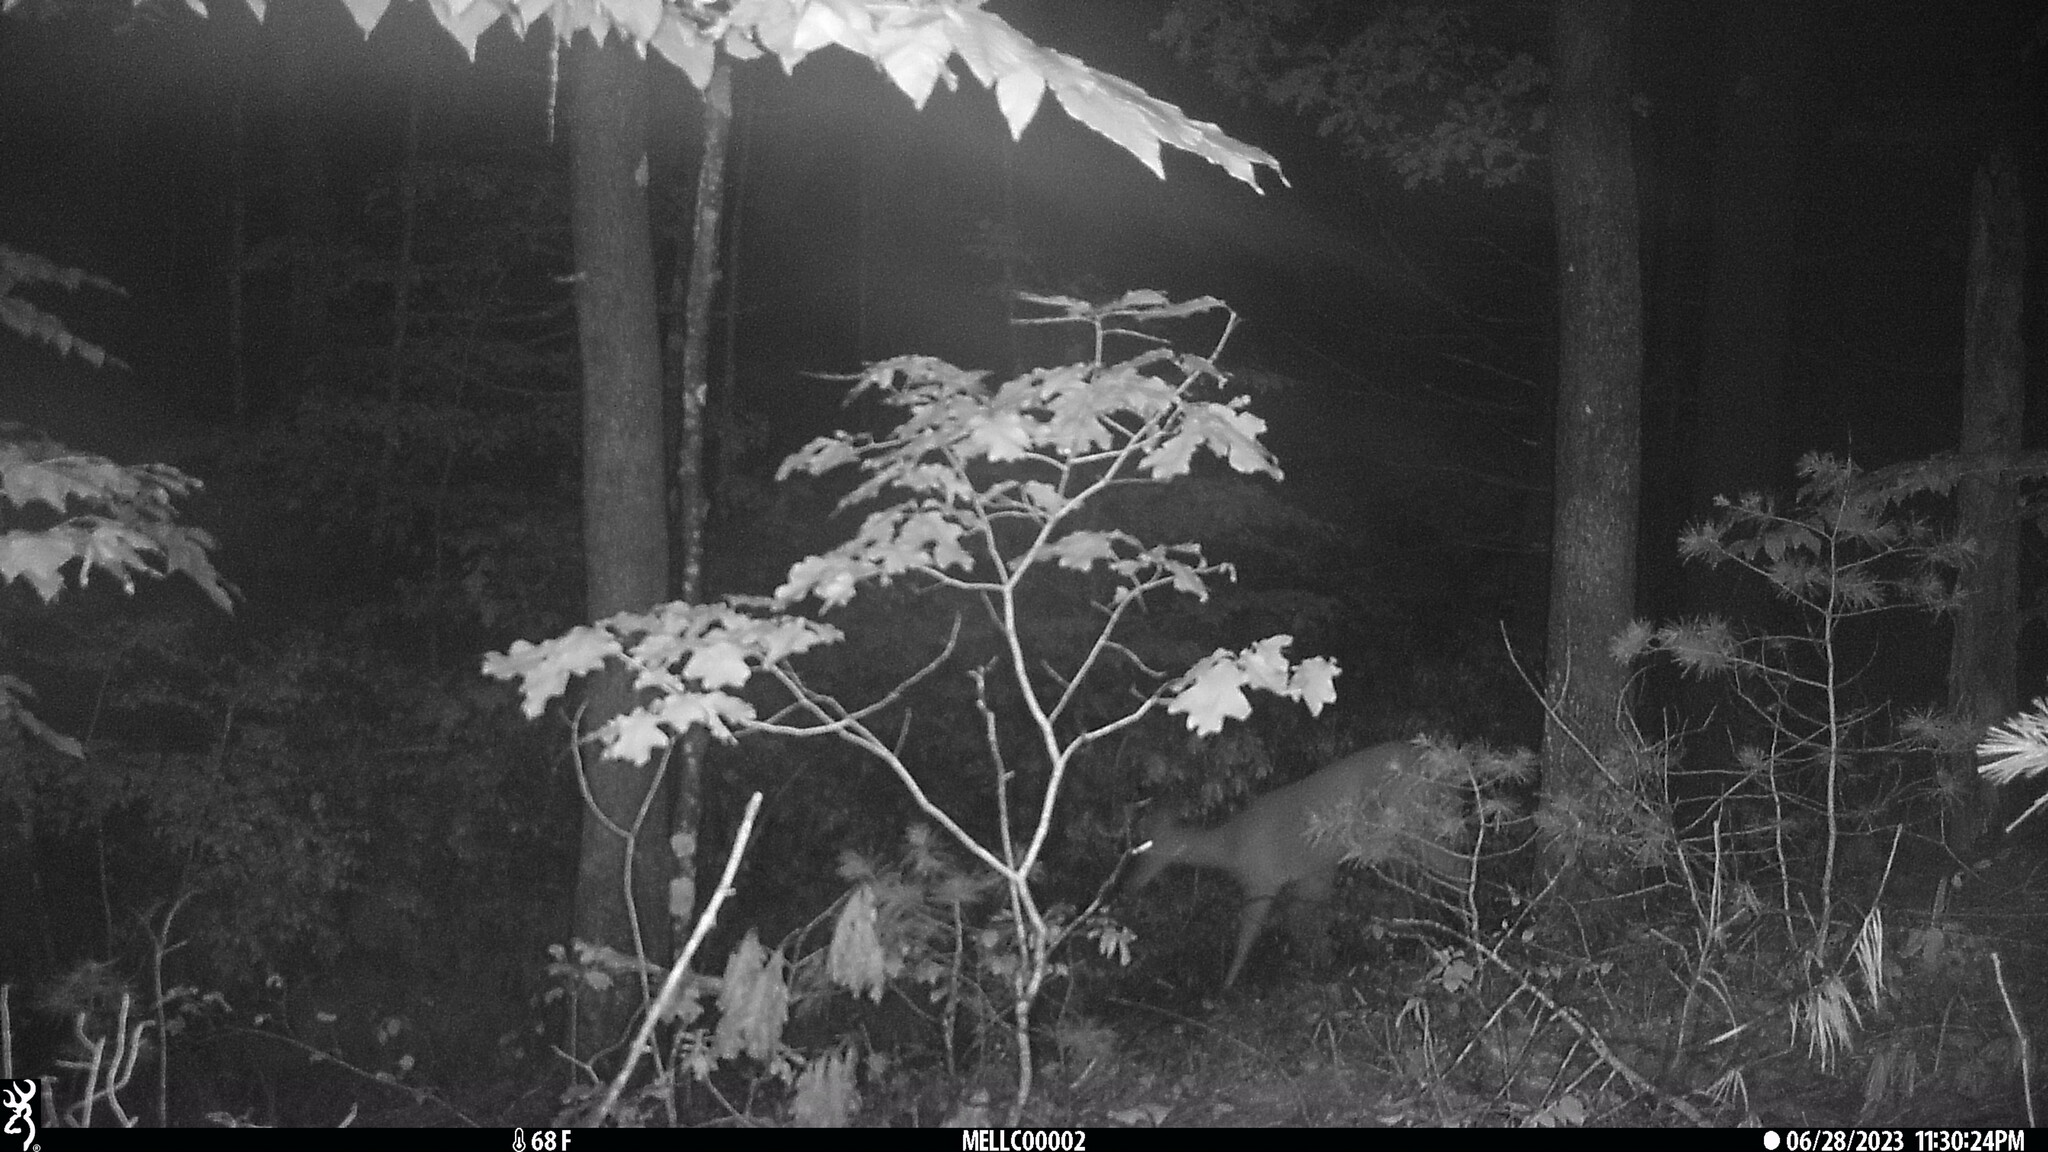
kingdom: Animalia
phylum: Chordata
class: Mammalia
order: Artiodactyla
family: Cervidae
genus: Odocoileus
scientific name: Odocoileus virginianus
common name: White-tailed deer
